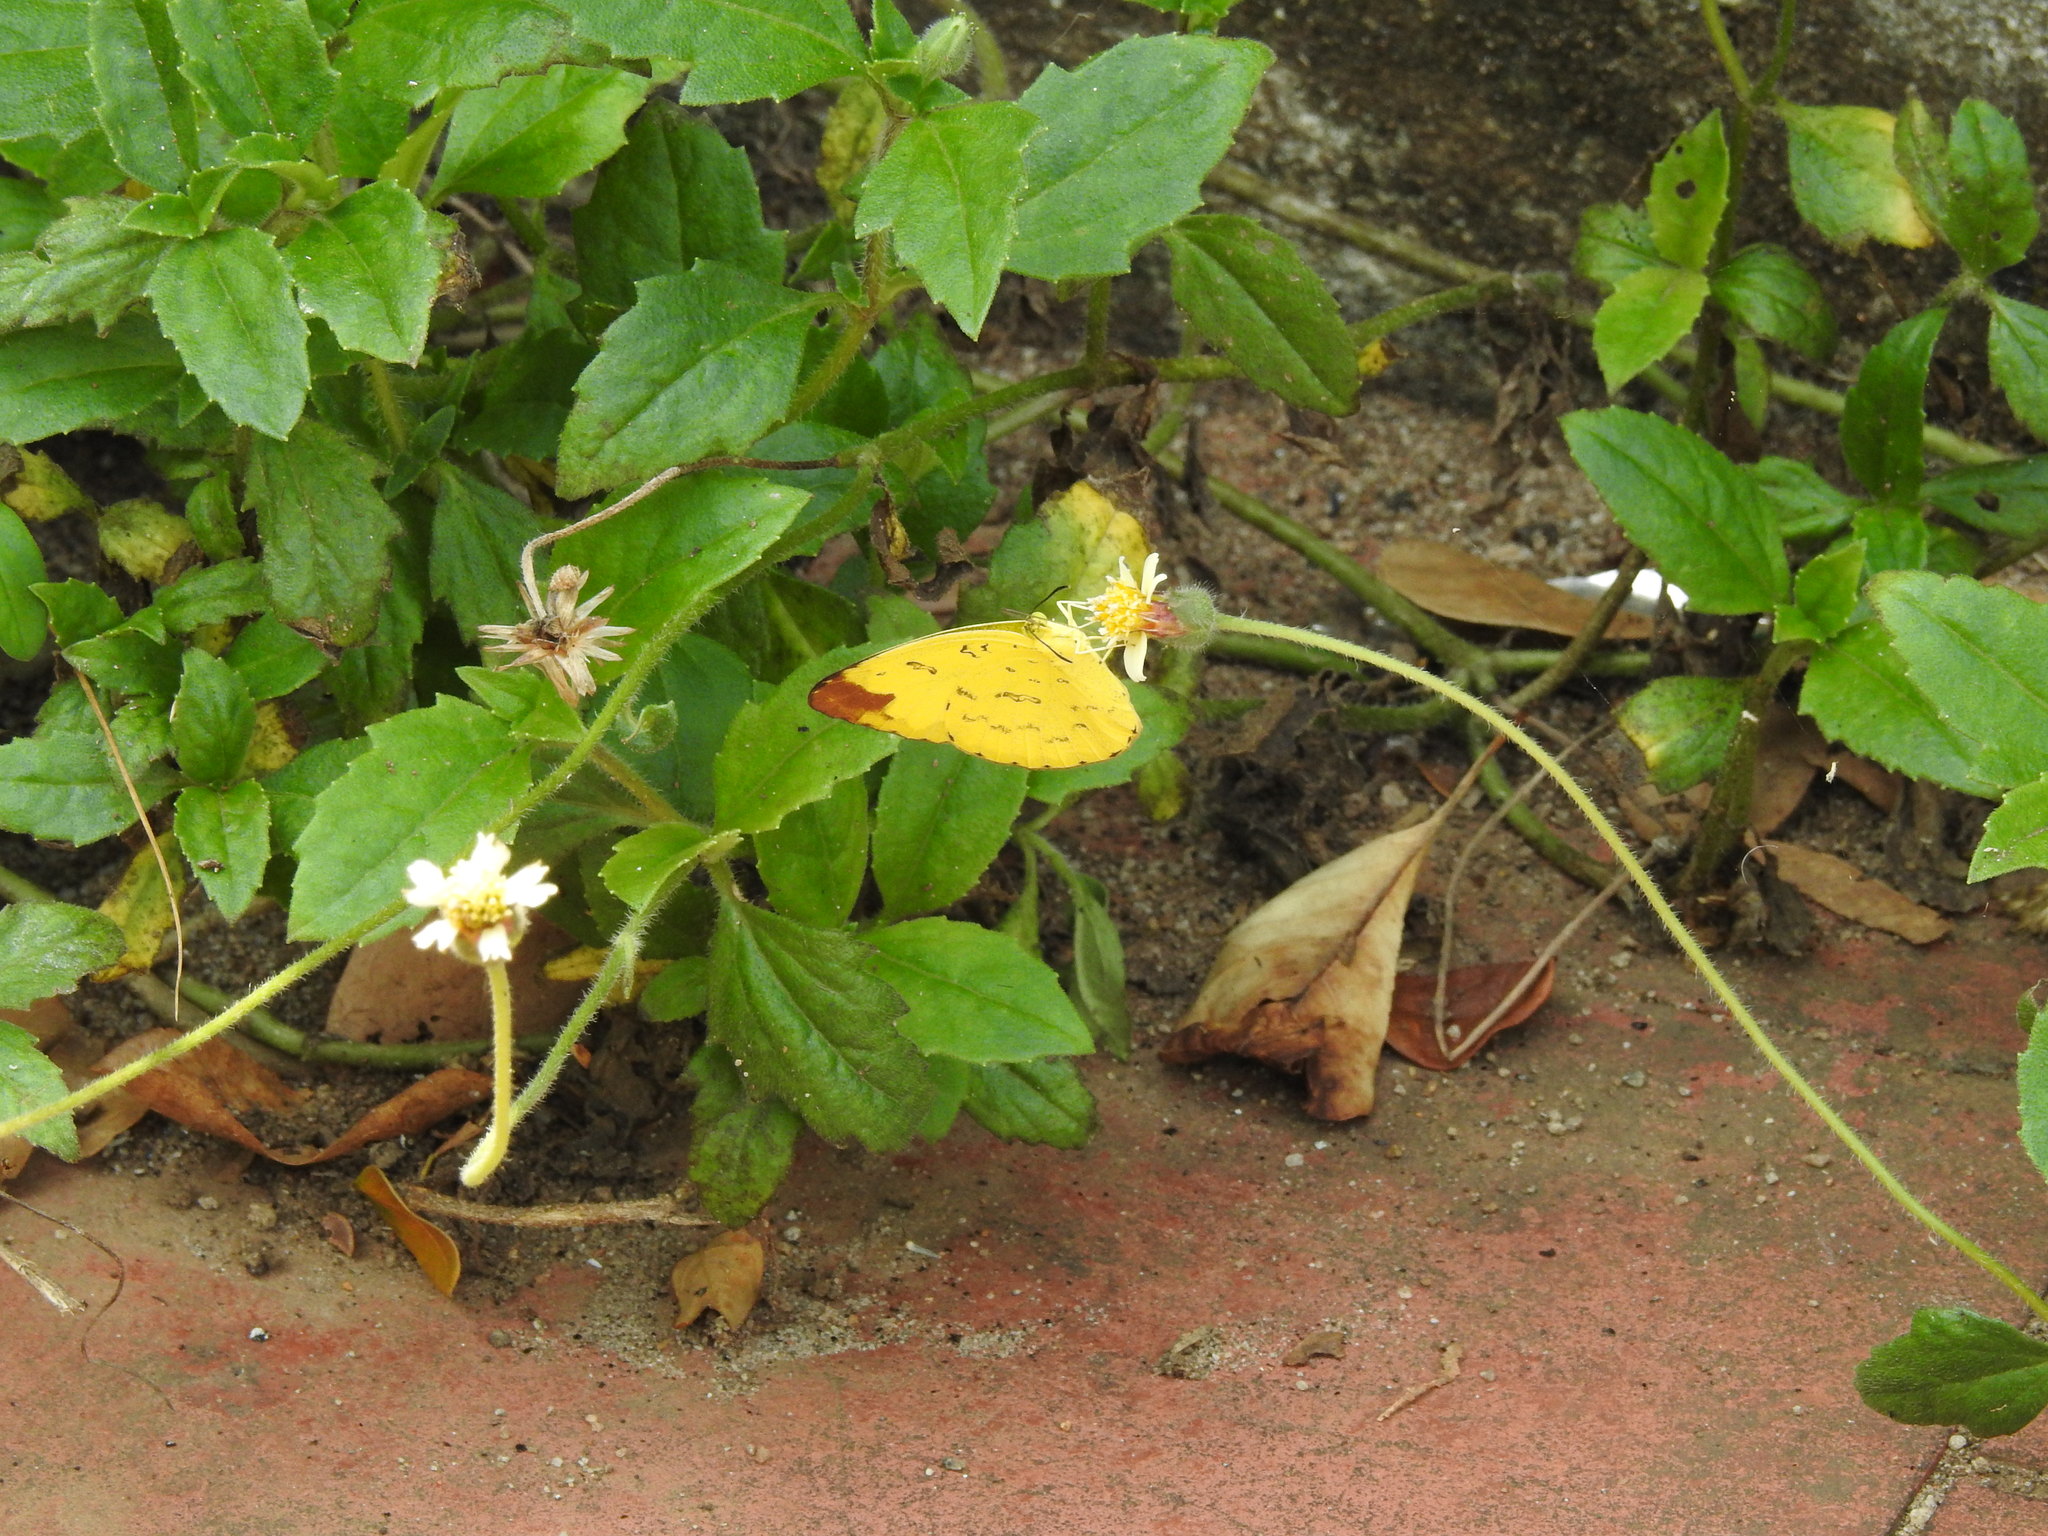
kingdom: Animalia
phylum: Arthropoda
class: Insecta
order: Lepidoptera
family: Pieridae
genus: Eurema
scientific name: Eurema blanda
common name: Three-spot grass yellow
